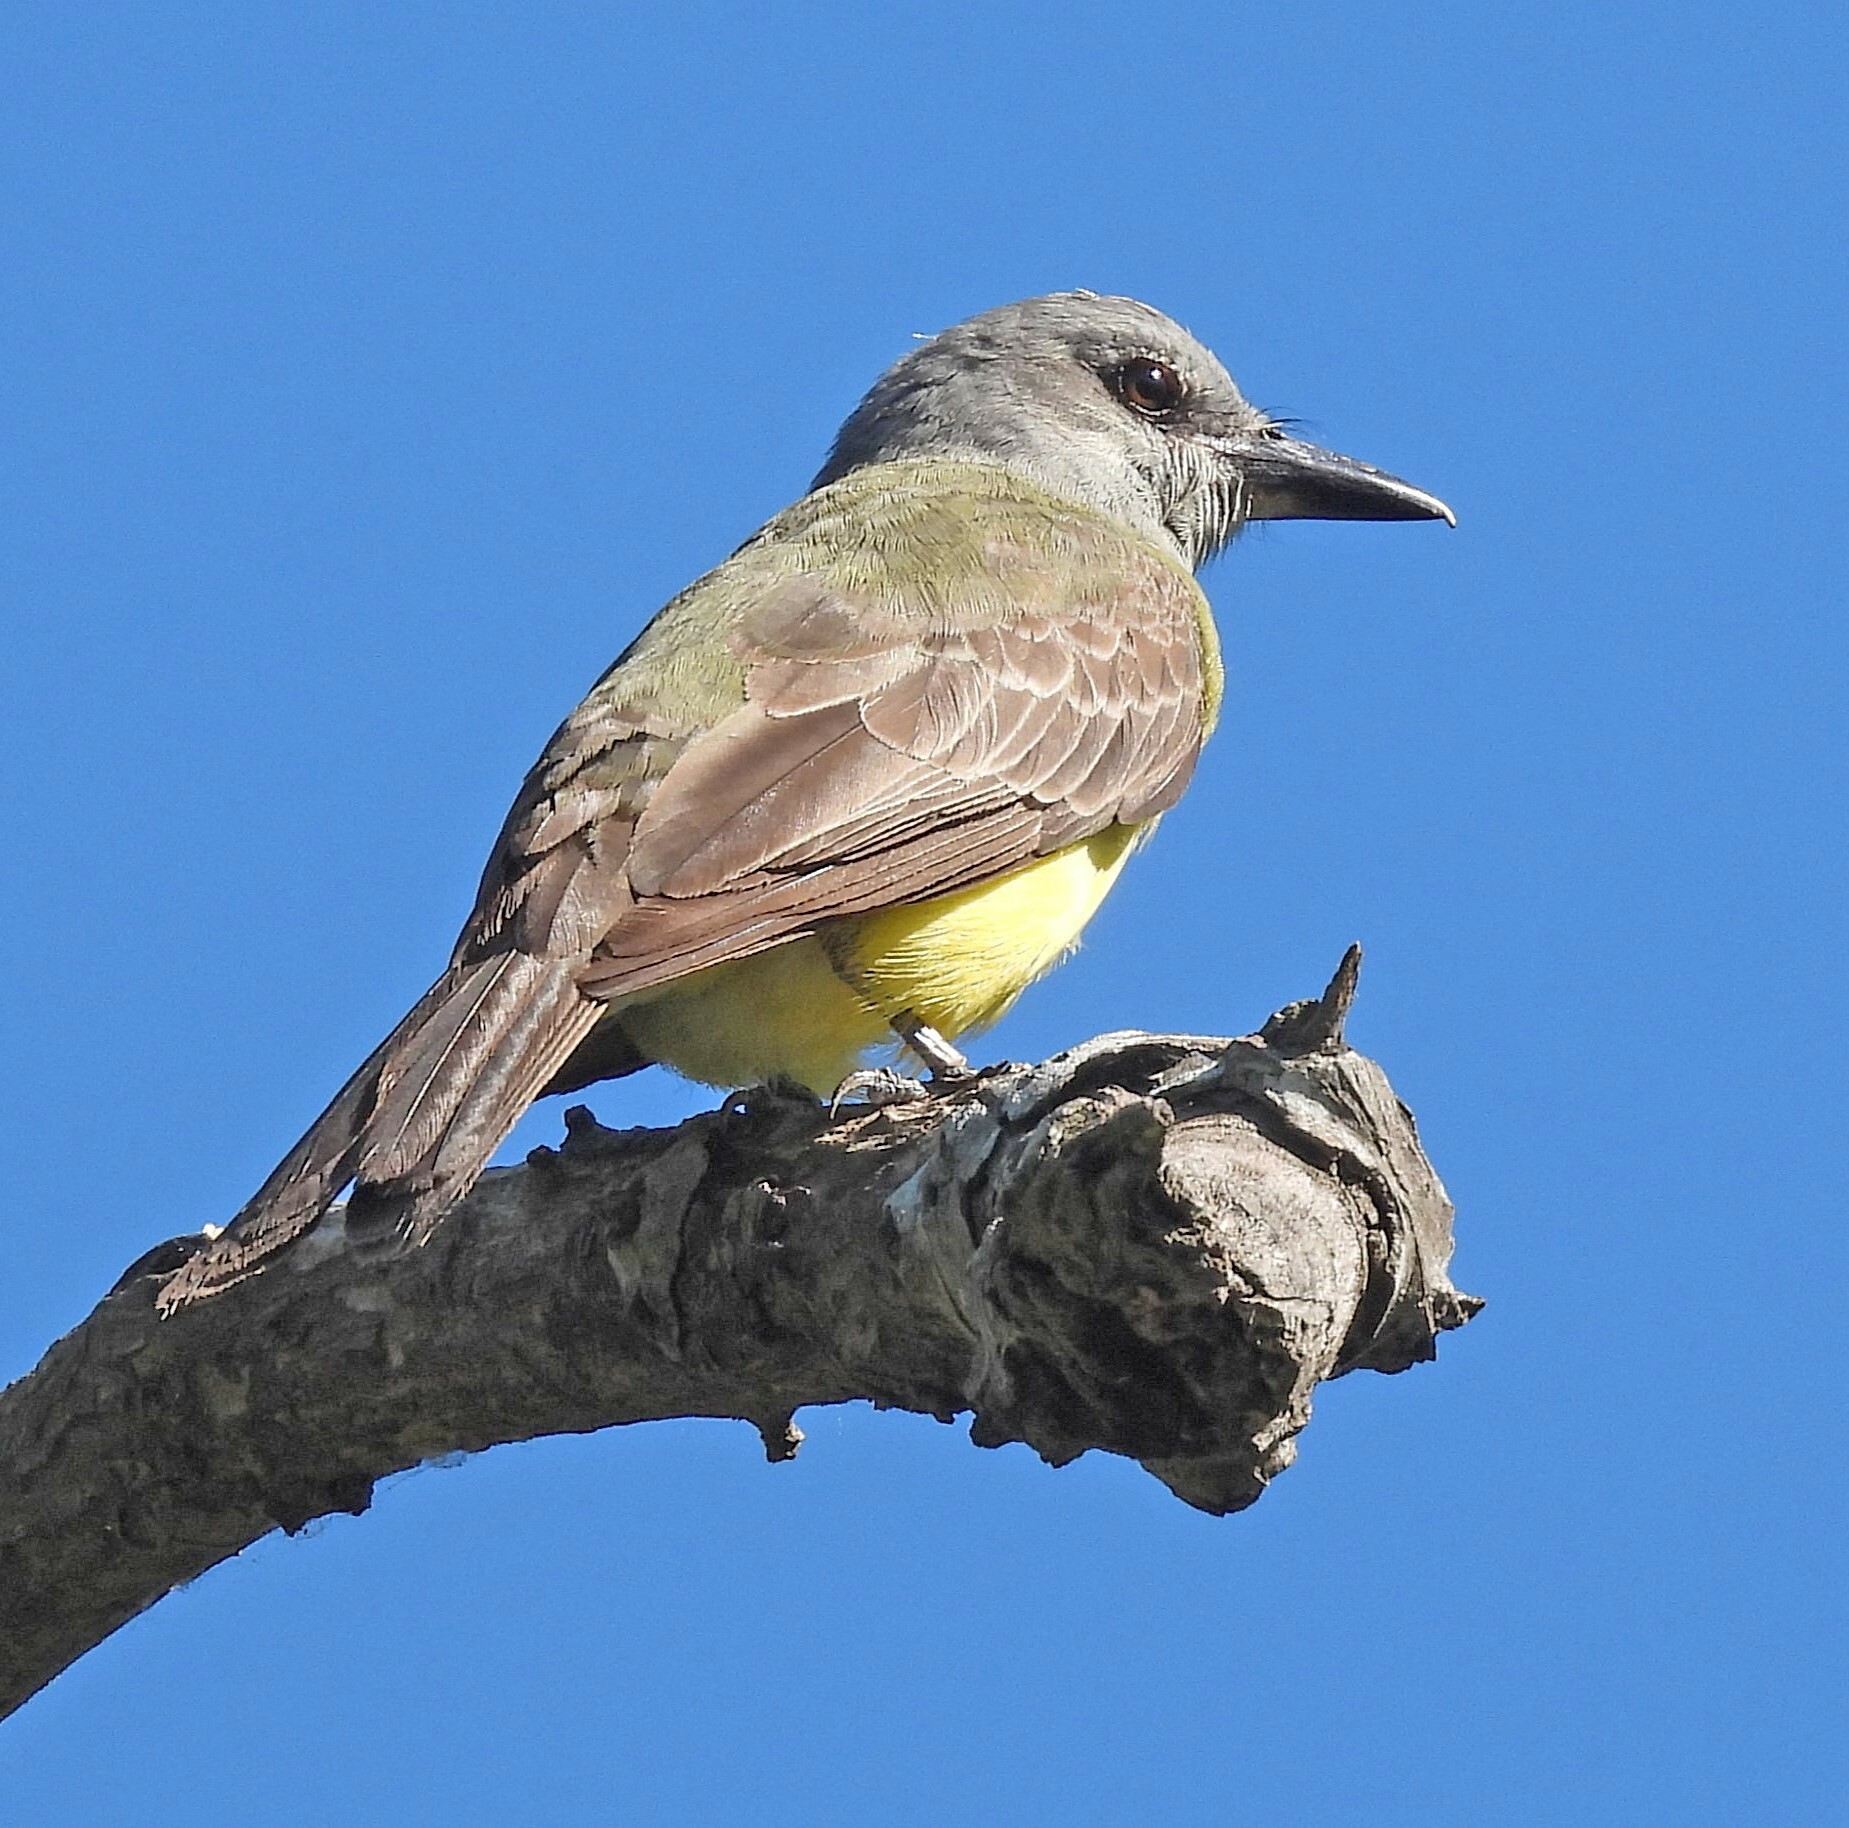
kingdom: Animalia
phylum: Chordata
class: Aves
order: Passeriformes
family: Tyrannidae
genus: Tyrannus
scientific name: Tyrannus melancholicus
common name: Tropical kingbird
